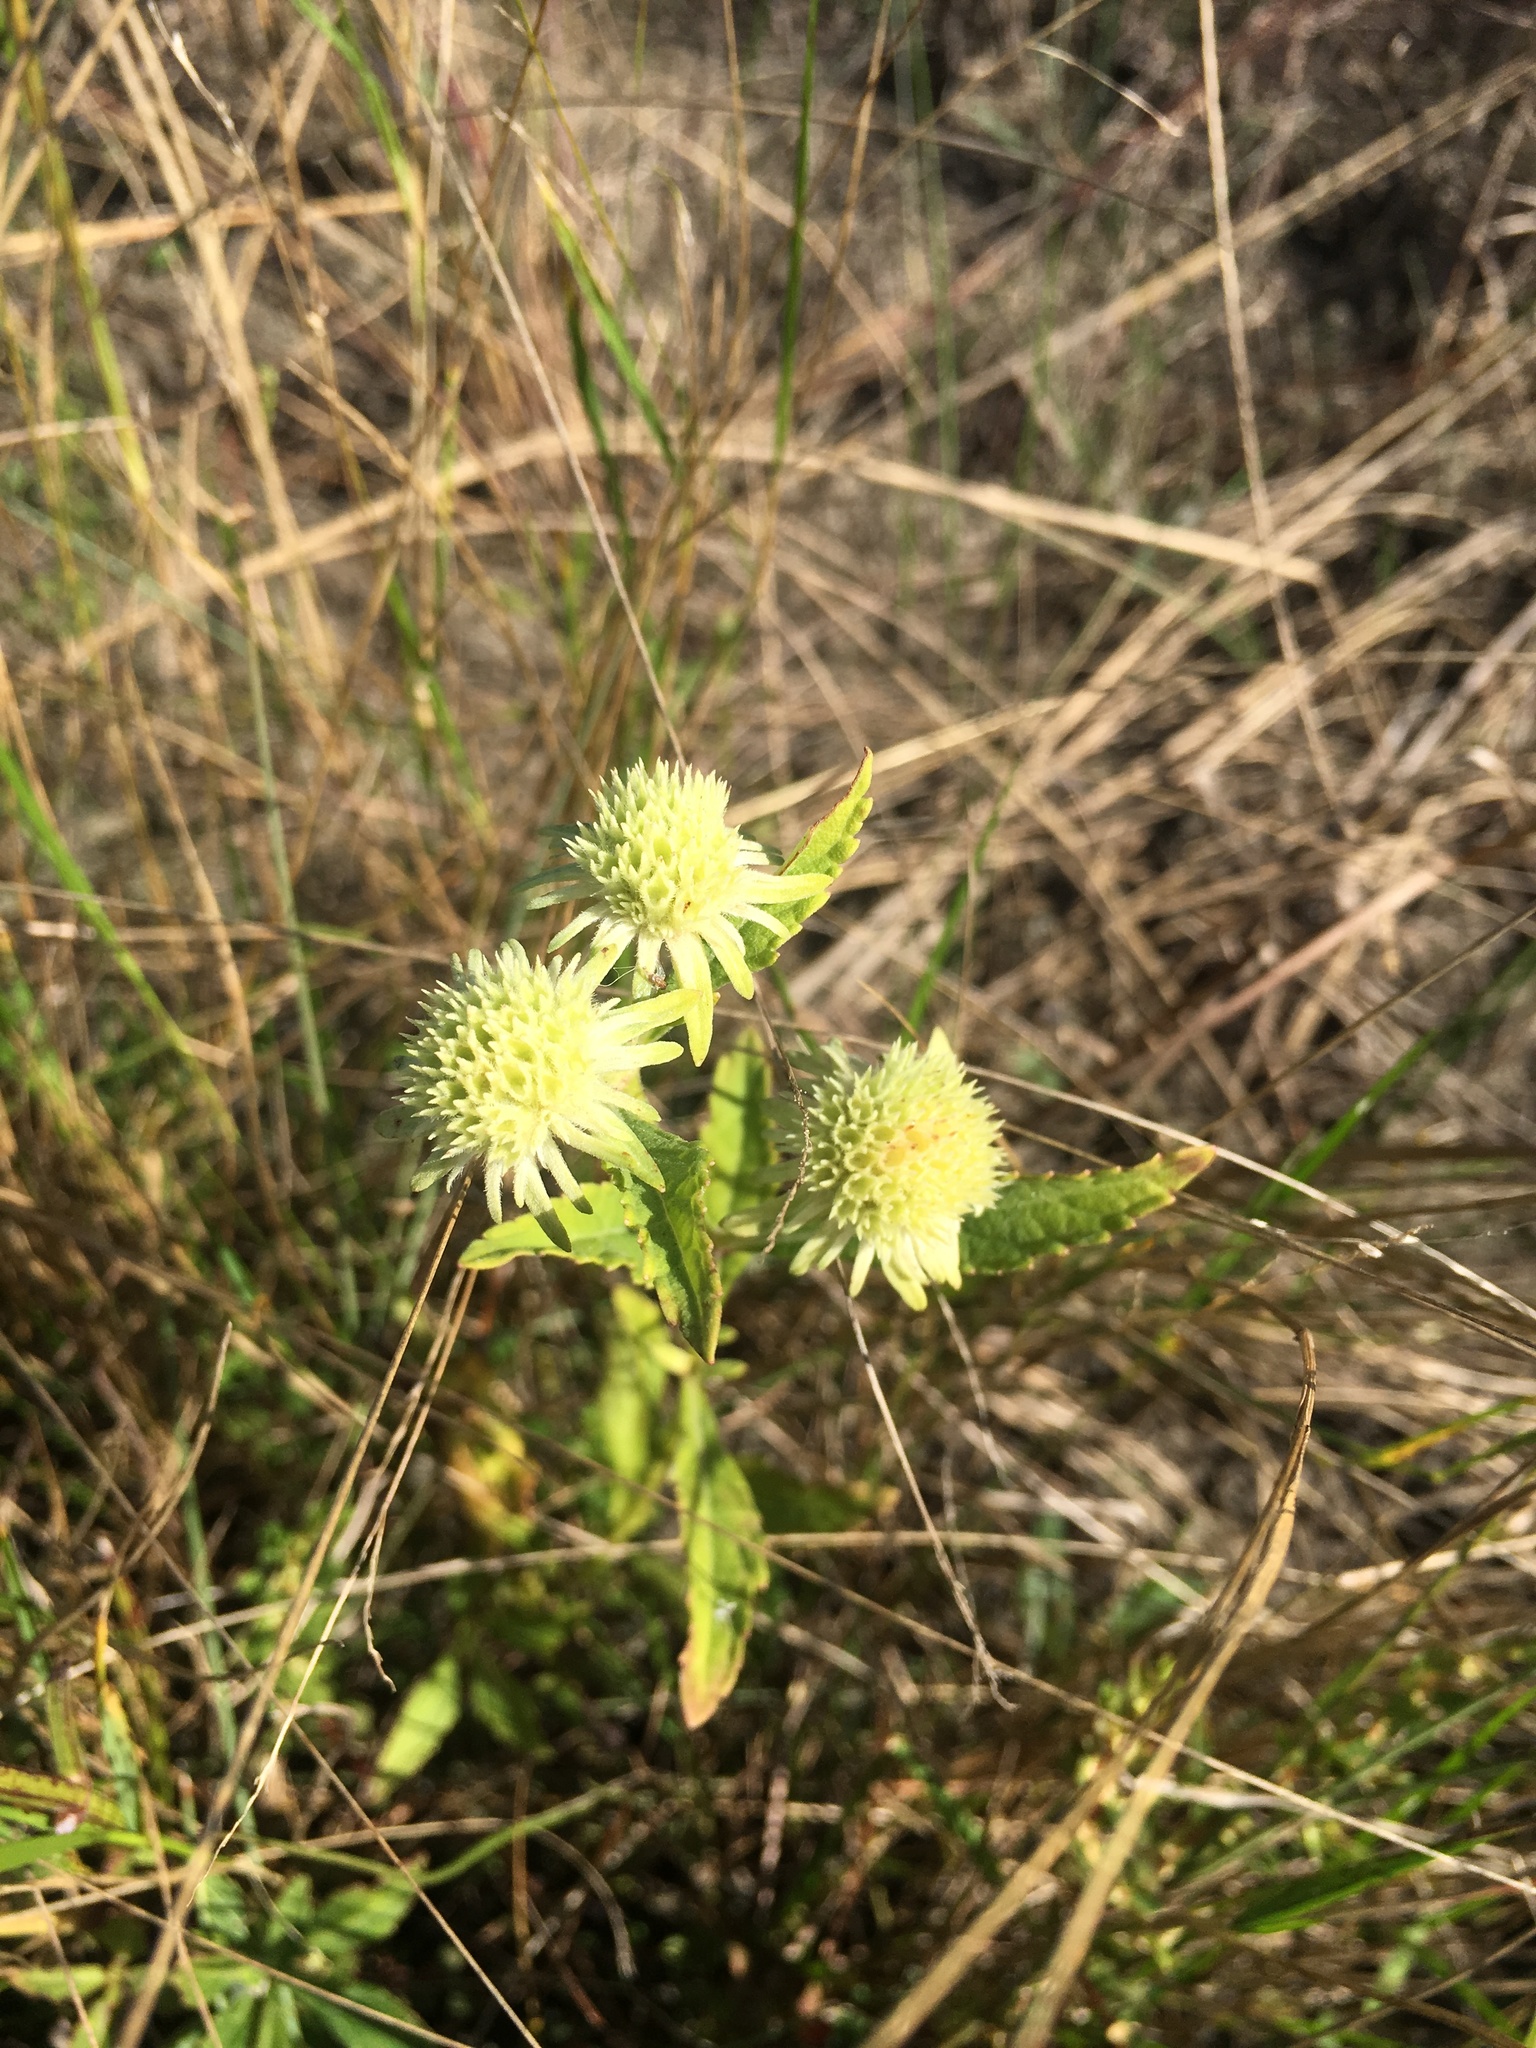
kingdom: Plantae
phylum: Tracheophyta
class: Magnoliopsida
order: Lamiales
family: Lamiaceae
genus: Hyptis
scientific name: Hyptis alata
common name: Cluster bush-mint
